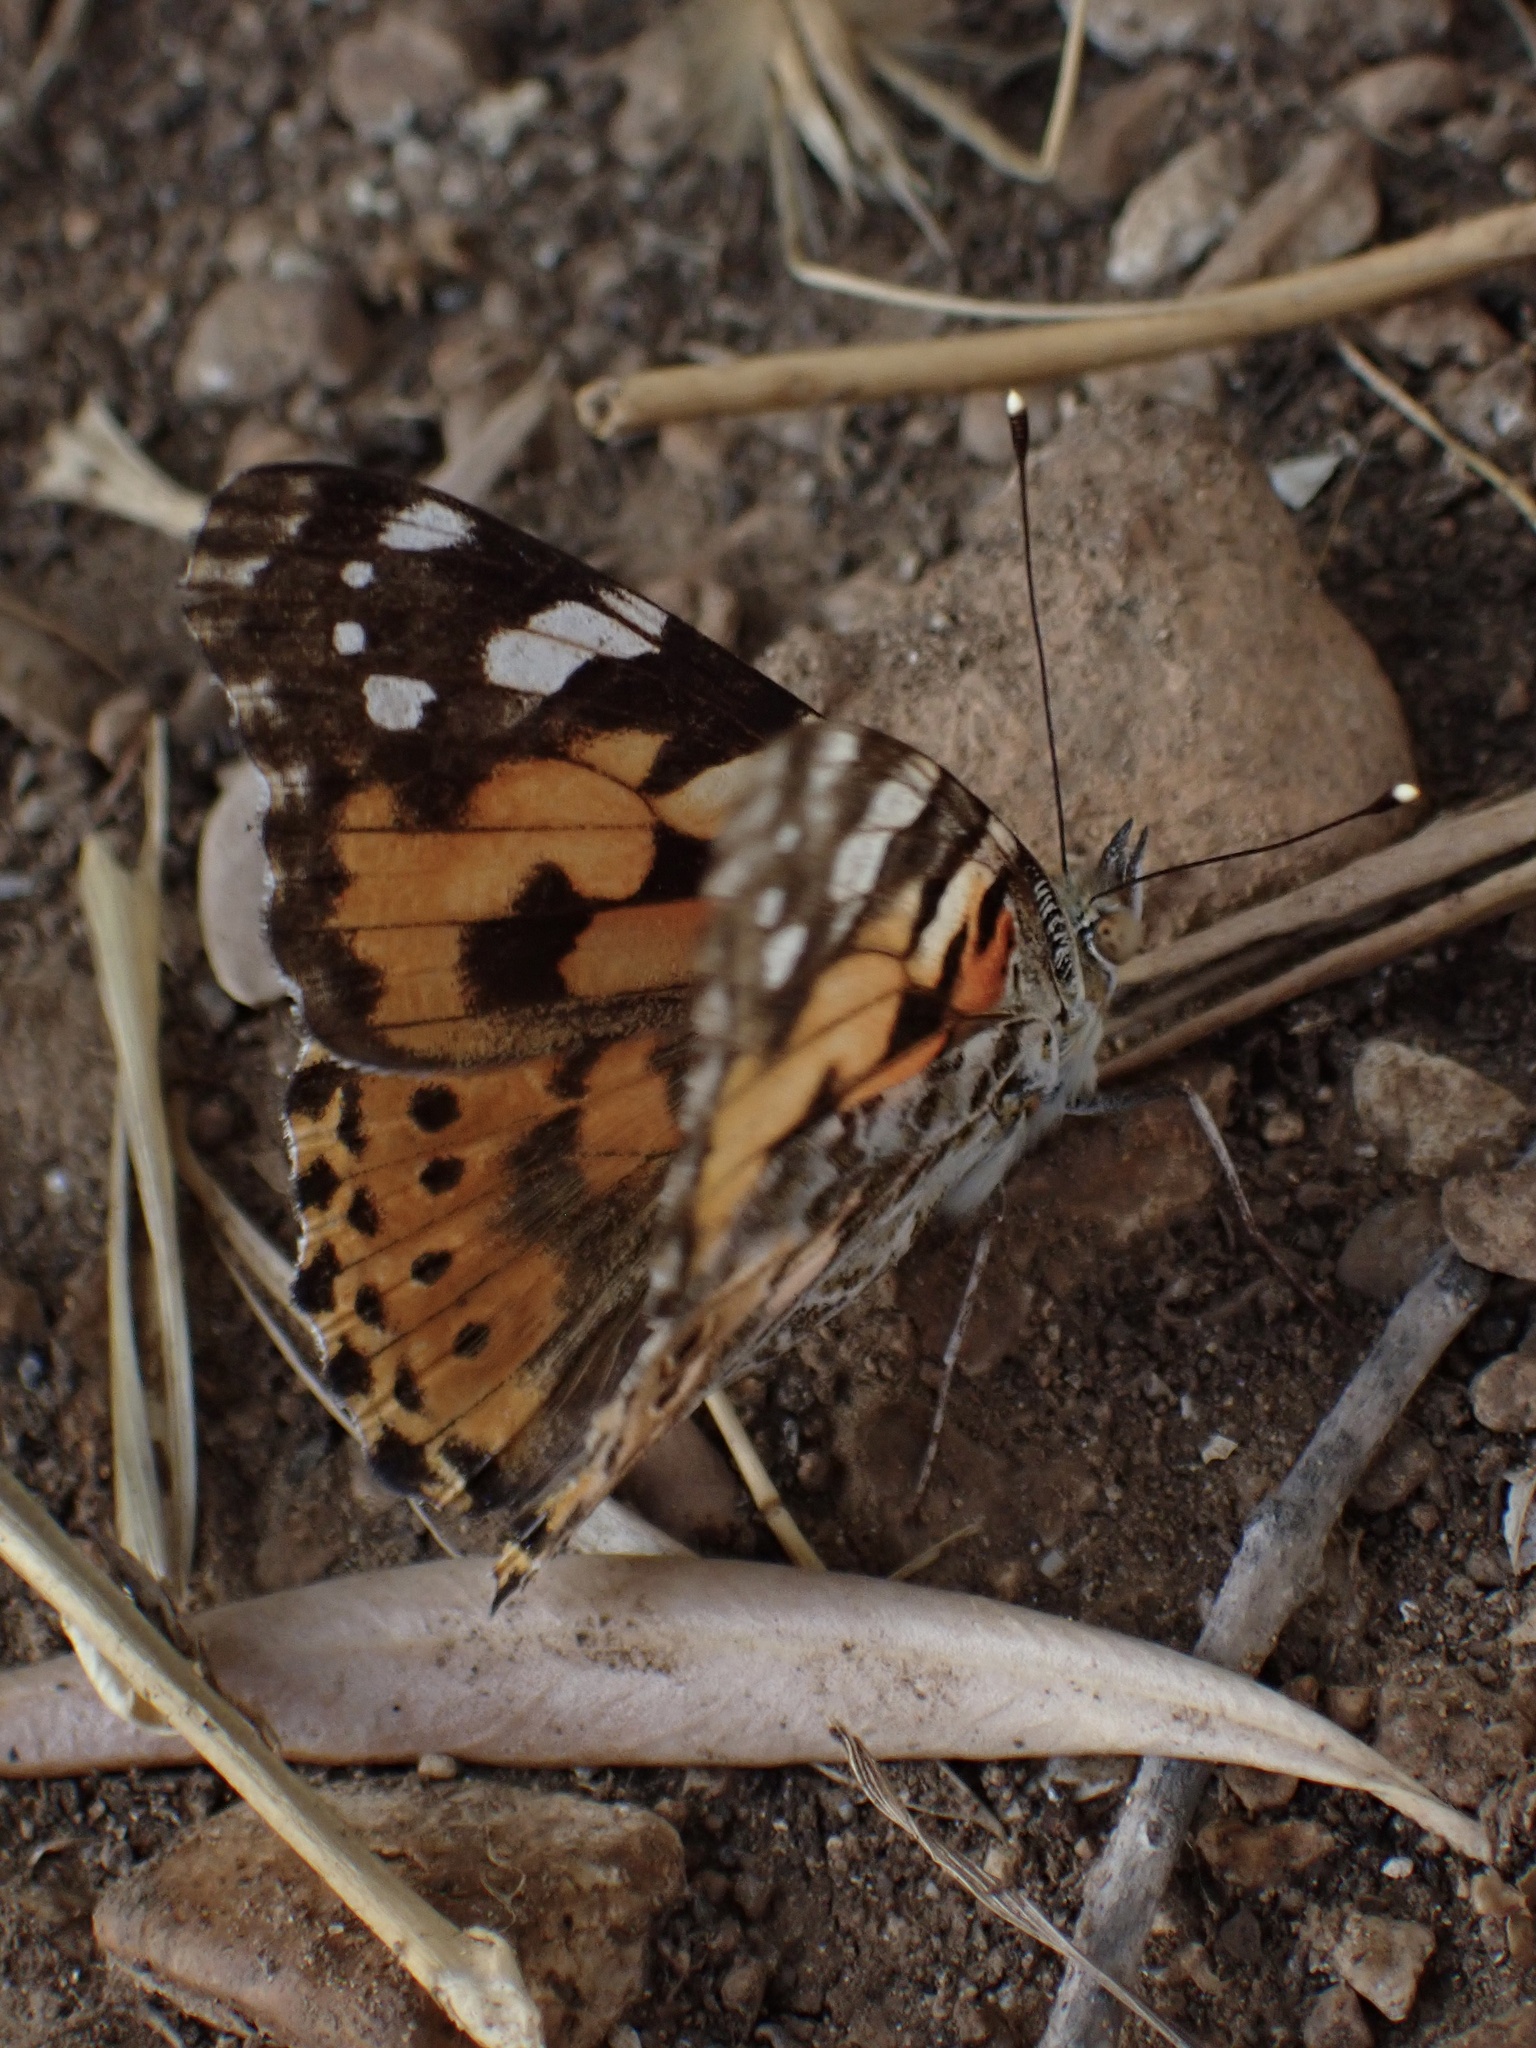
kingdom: Animalia
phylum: Arthropoda
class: Insecta
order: Lepidoptera
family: Nymphalidae
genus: Vanessa
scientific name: Vanessa cardui
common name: Painted lady
